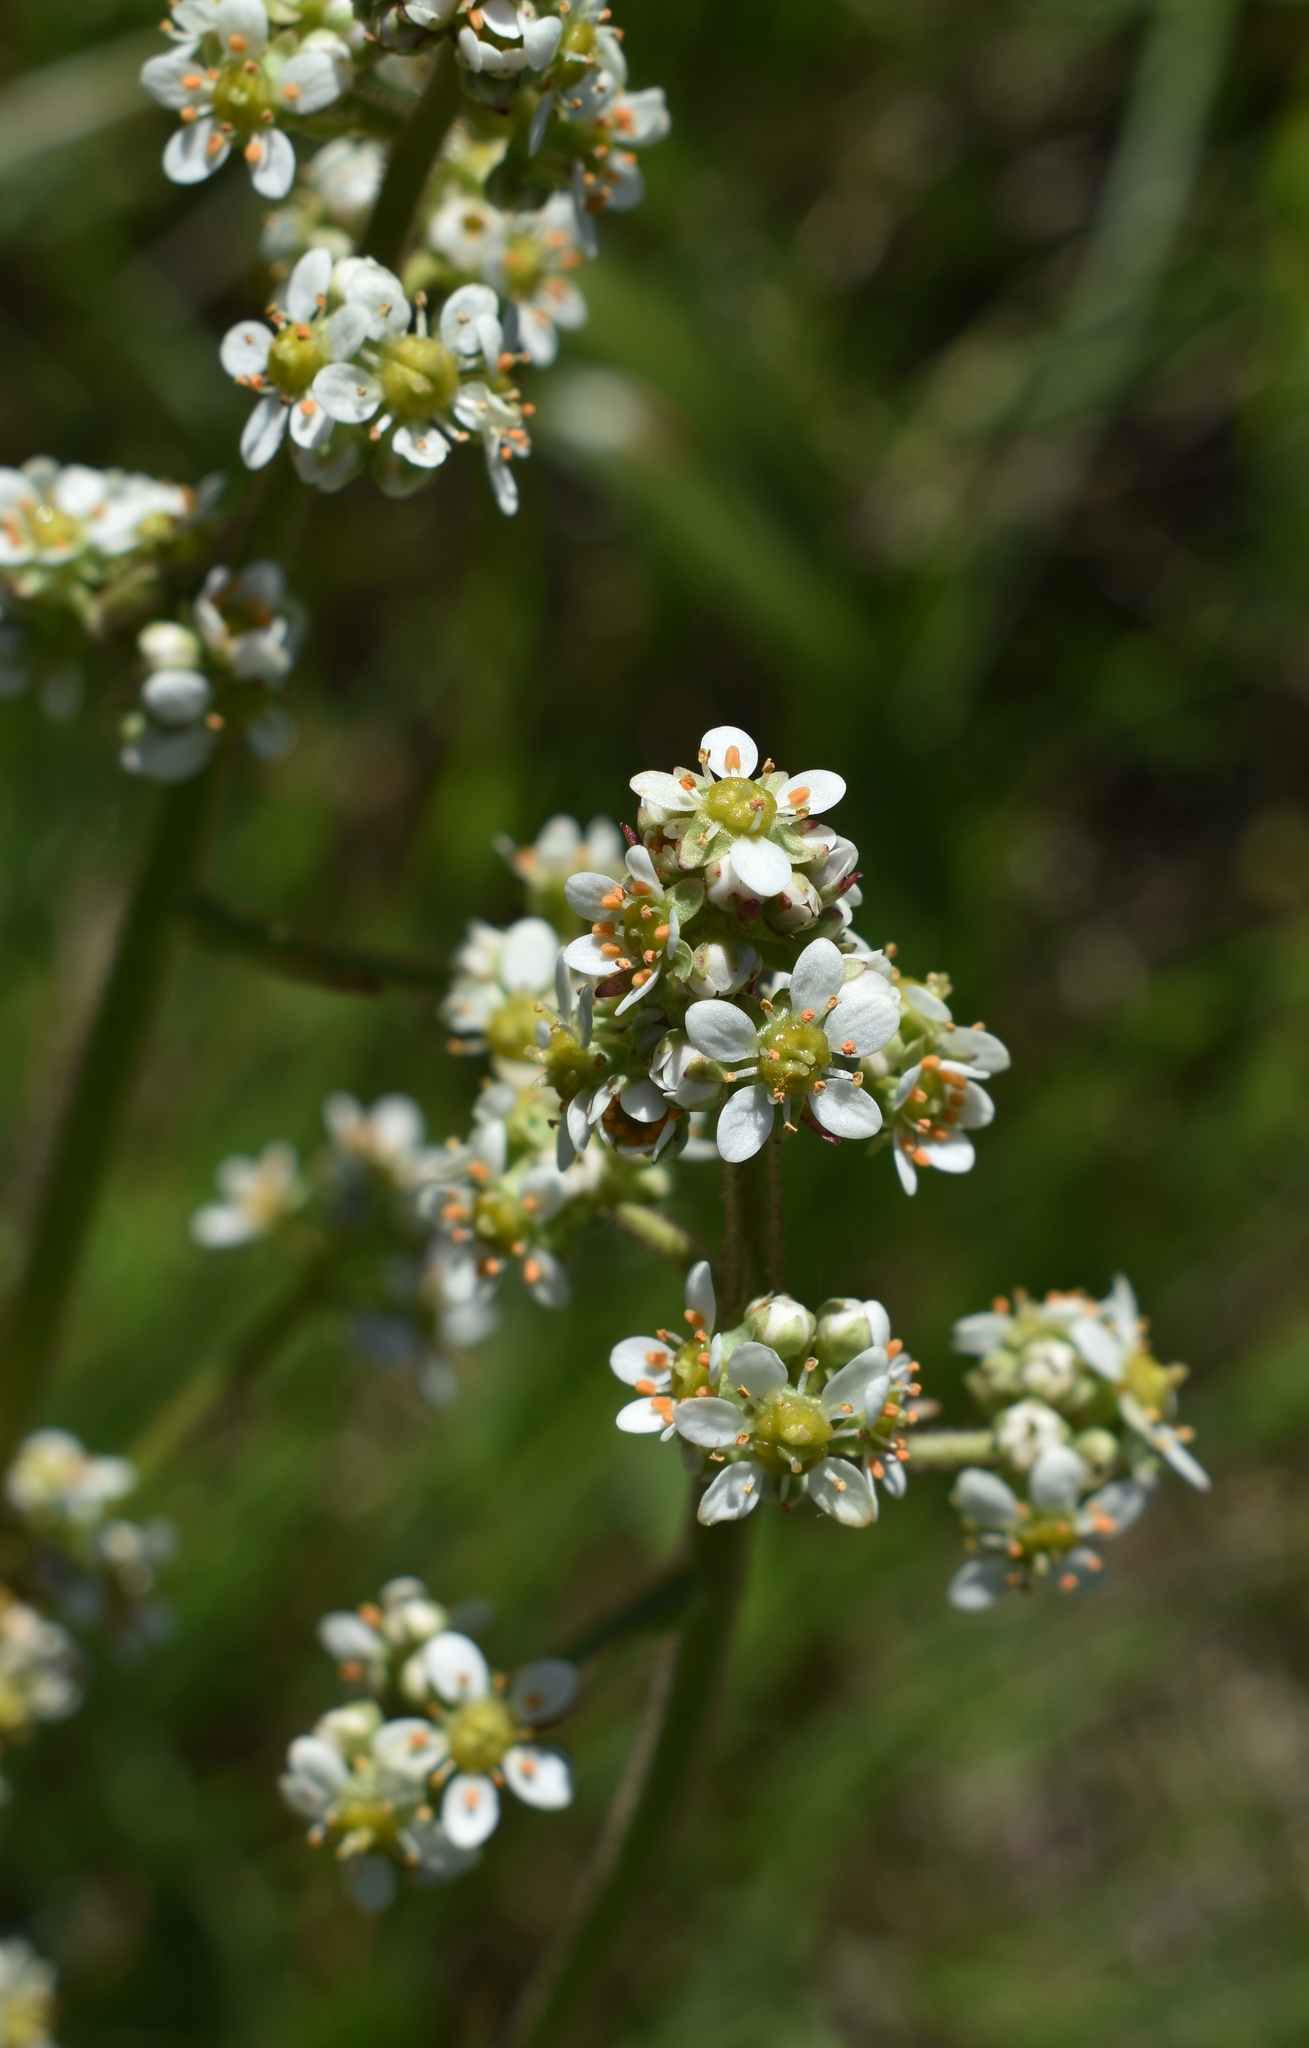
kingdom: Plantae
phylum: Tracheophyta
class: Magnoliopsida
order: Saxifragales
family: Saxifragaceae
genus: Micranthes
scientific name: Micranthes oregana
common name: Bog saxifrage
